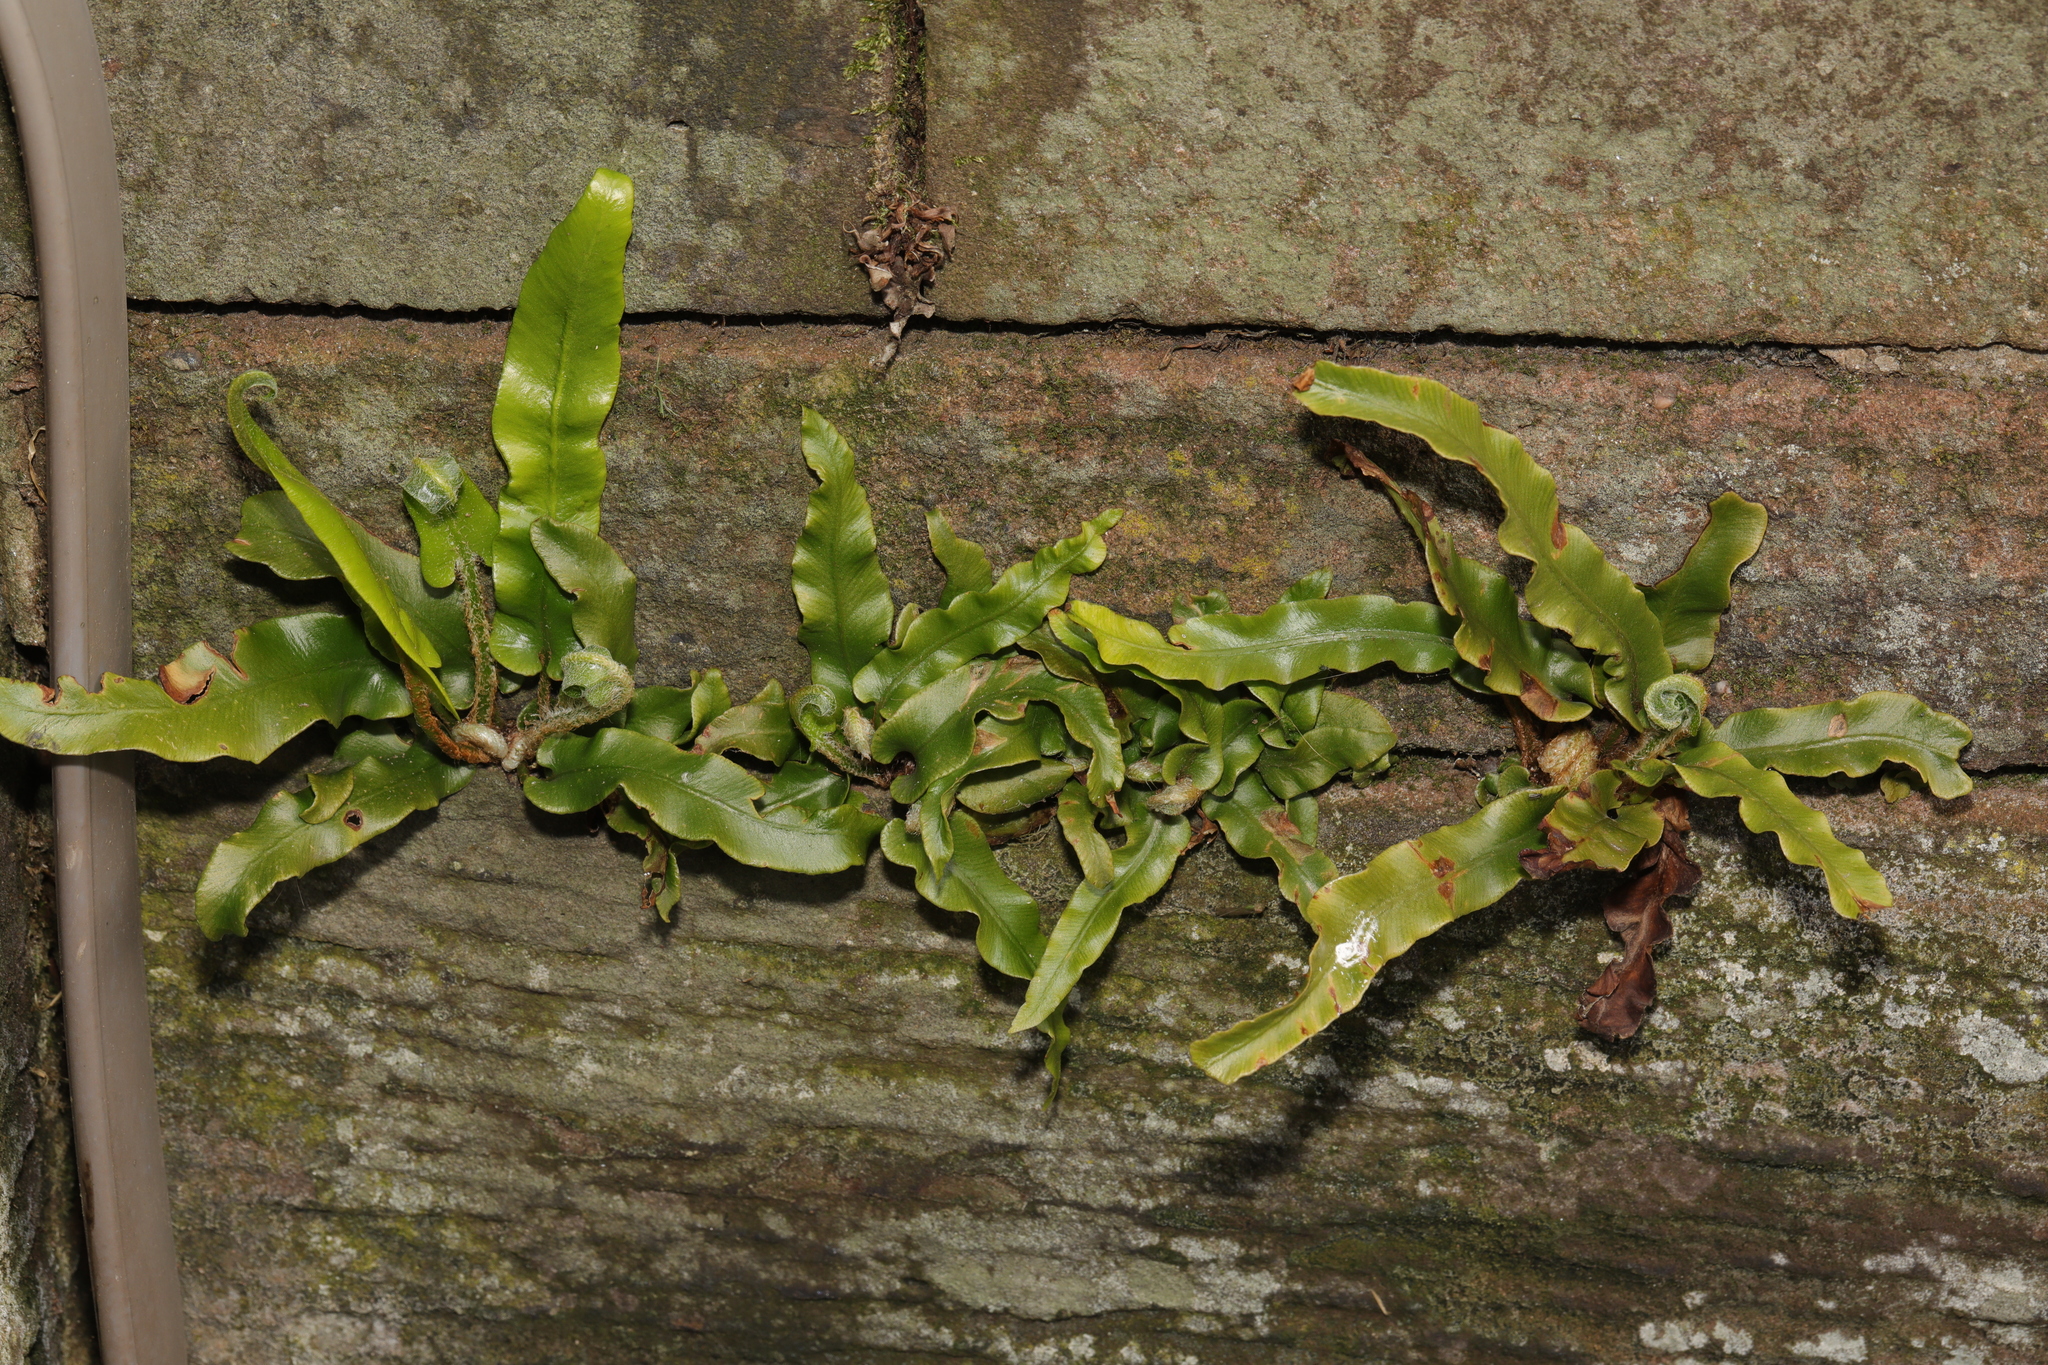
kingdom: Plantae
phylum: Tracheophyta
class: Polypodiopsida
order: Polypodiales
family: Aspleniaceae
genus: Asplenium
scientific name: Asplenium scolopendrium
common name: Hart's-tongue fern
